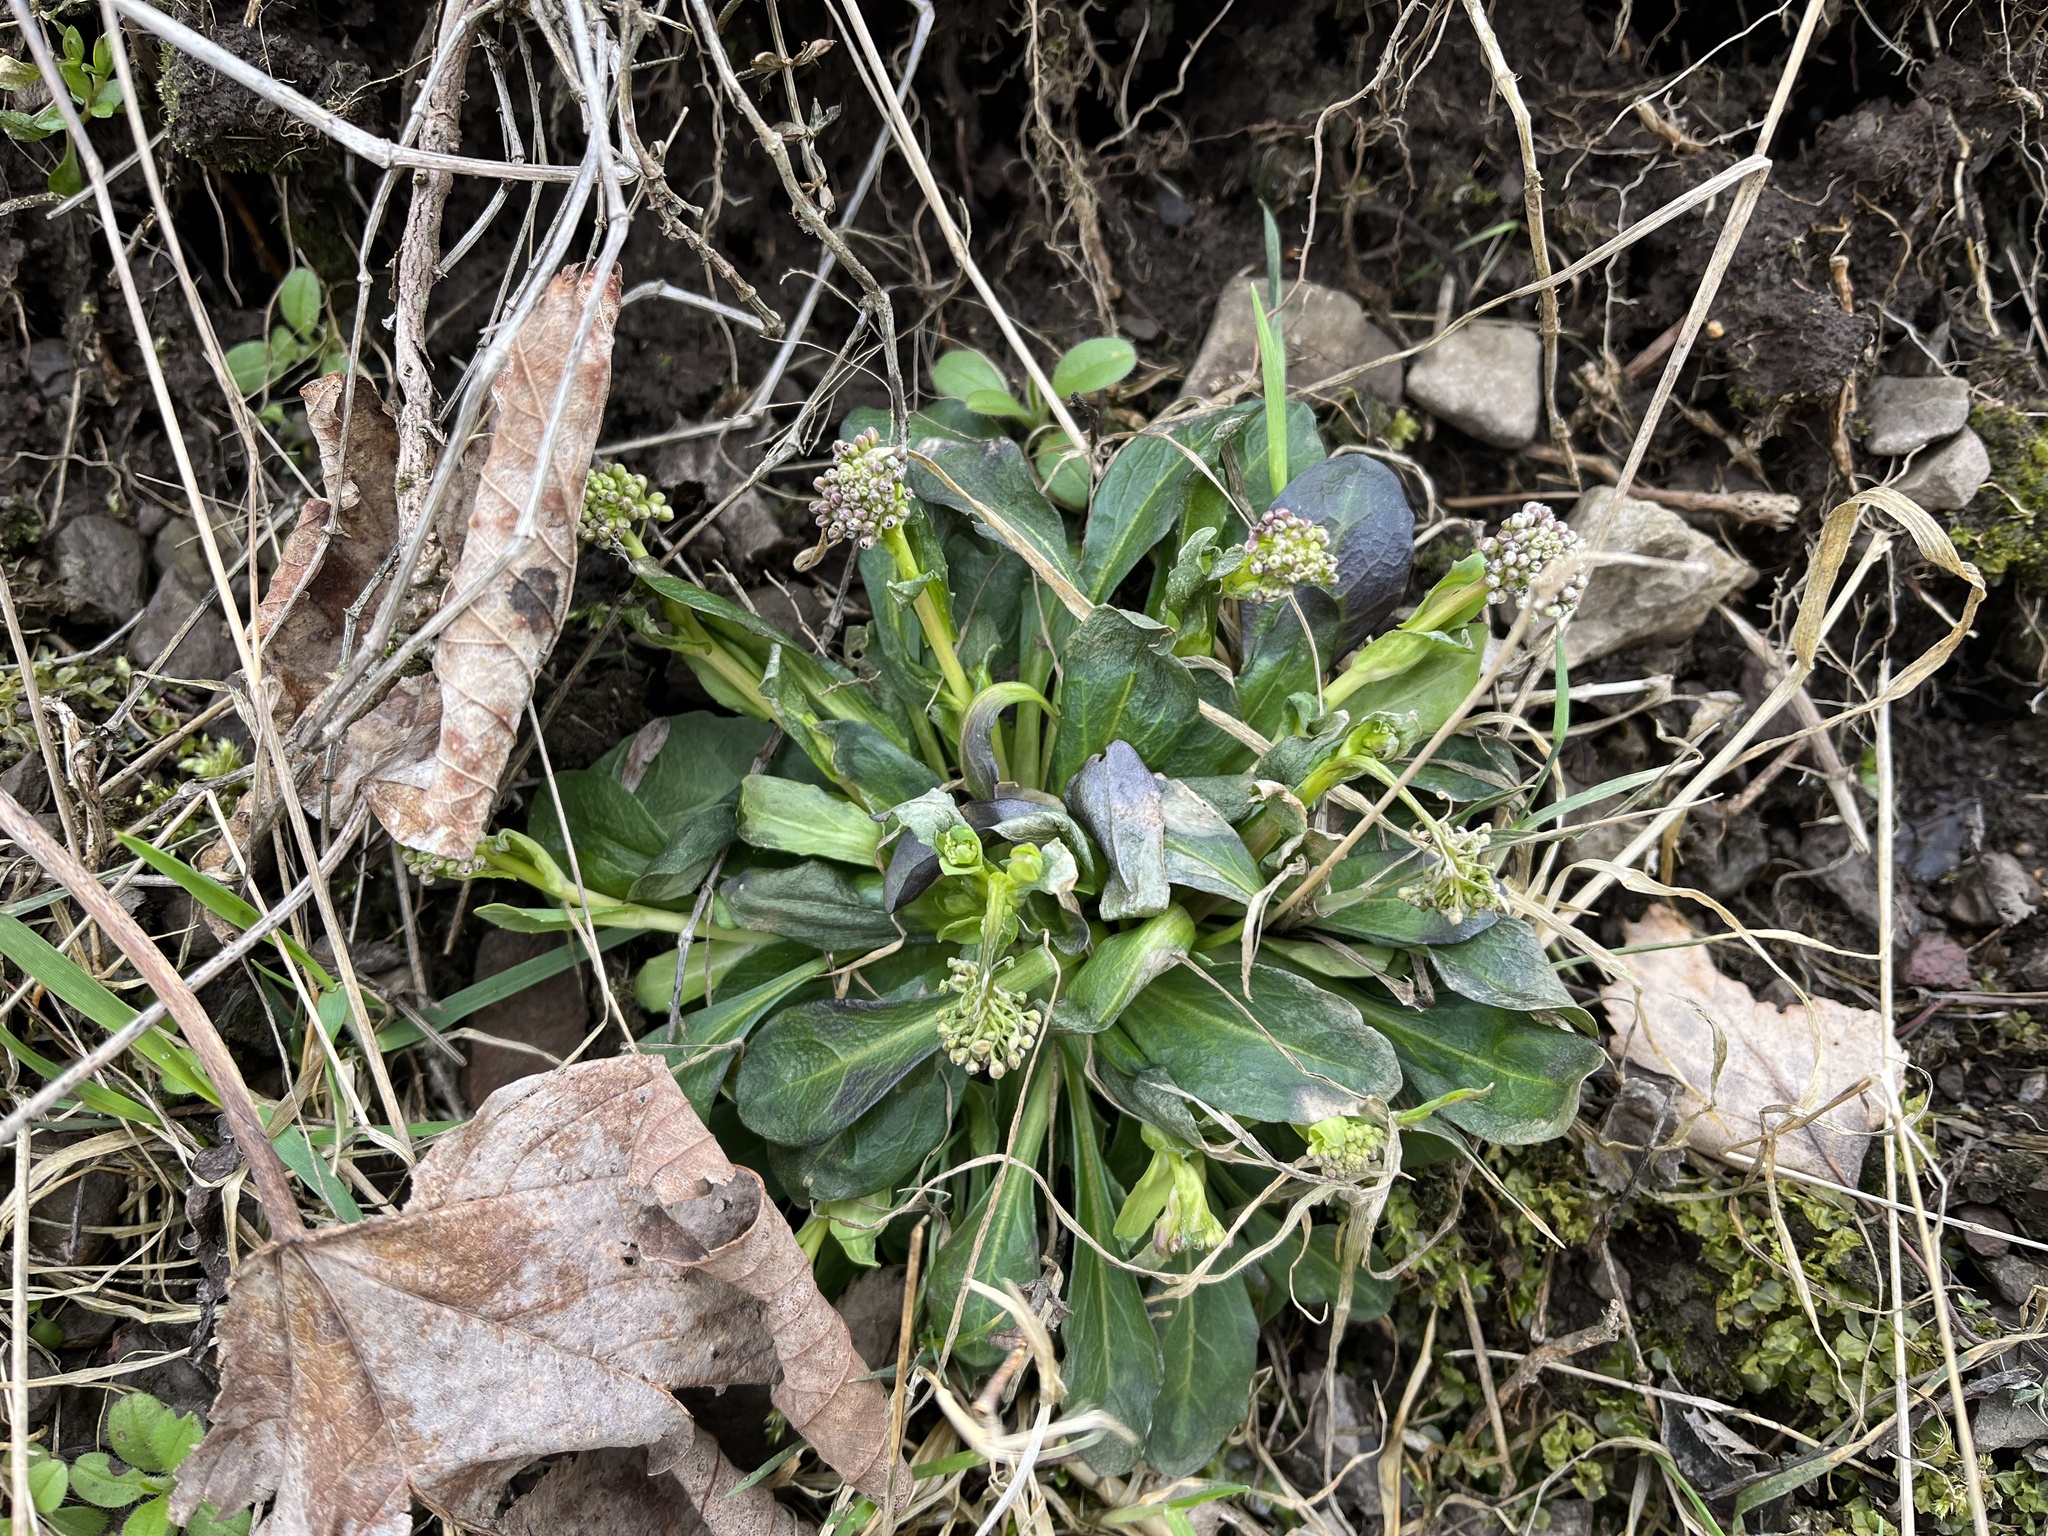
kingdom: Plantae
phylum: Tracheophyta
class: Magnoliopsida
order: Brassicales
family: Brassicaceae
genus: Noccaea
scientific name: Noccaea caerulescens
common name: Alpine pennycress
